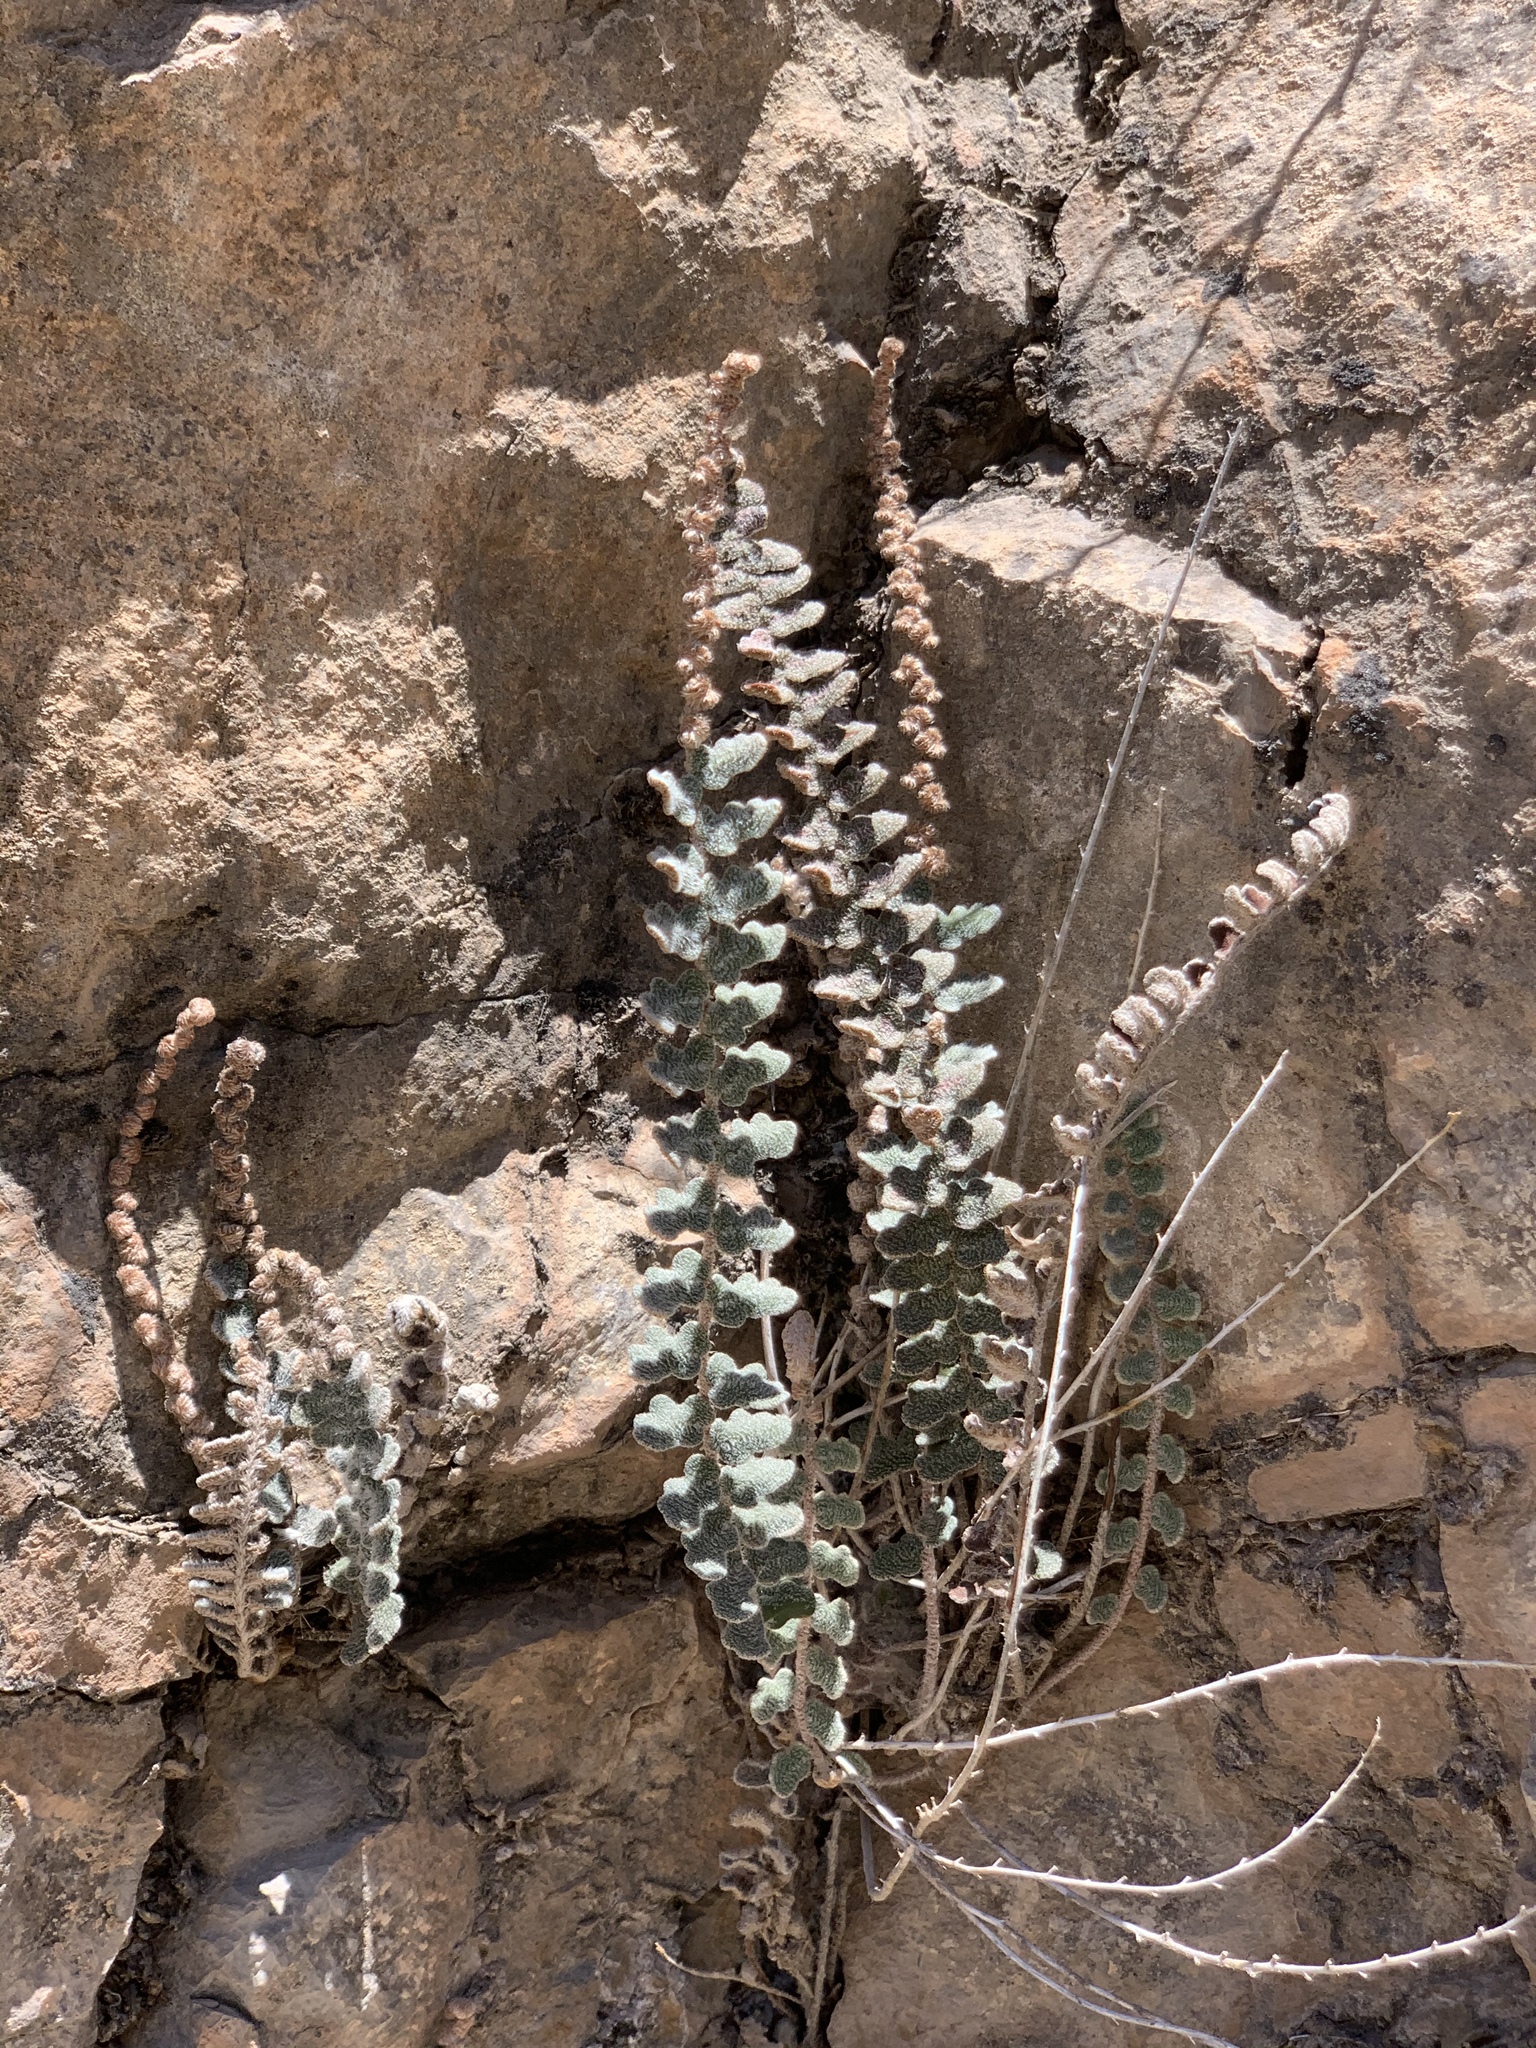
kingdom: Plantae
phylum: Tracheophyta
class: Polypodiopsida
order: Polypodiales
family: Pteridaceae
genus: Astrolepis
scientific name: Astrolepis integerrima
